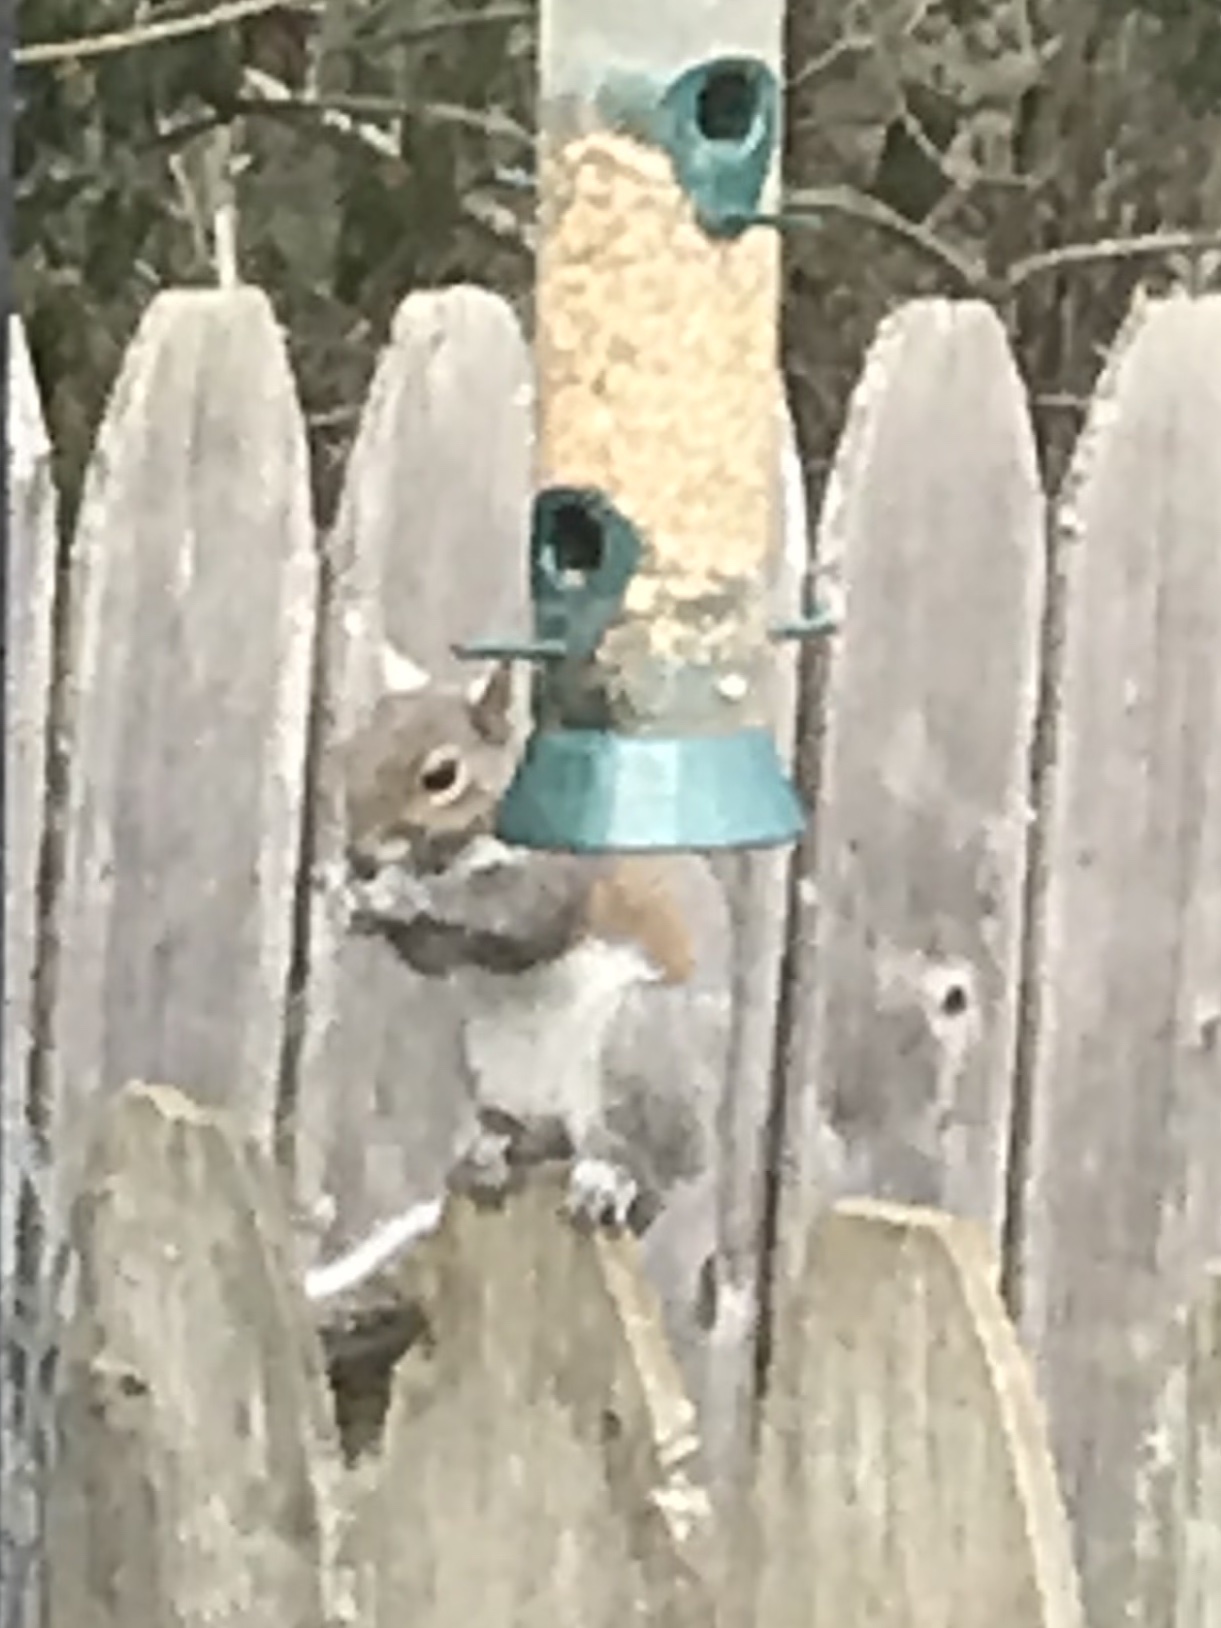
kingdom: Animalia
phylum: Chordata
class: Mammalia
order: Rodentia
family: Sciuridae
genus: Sciurus
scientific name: Sciurus carolinensis
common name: Eastern gray squirrel
